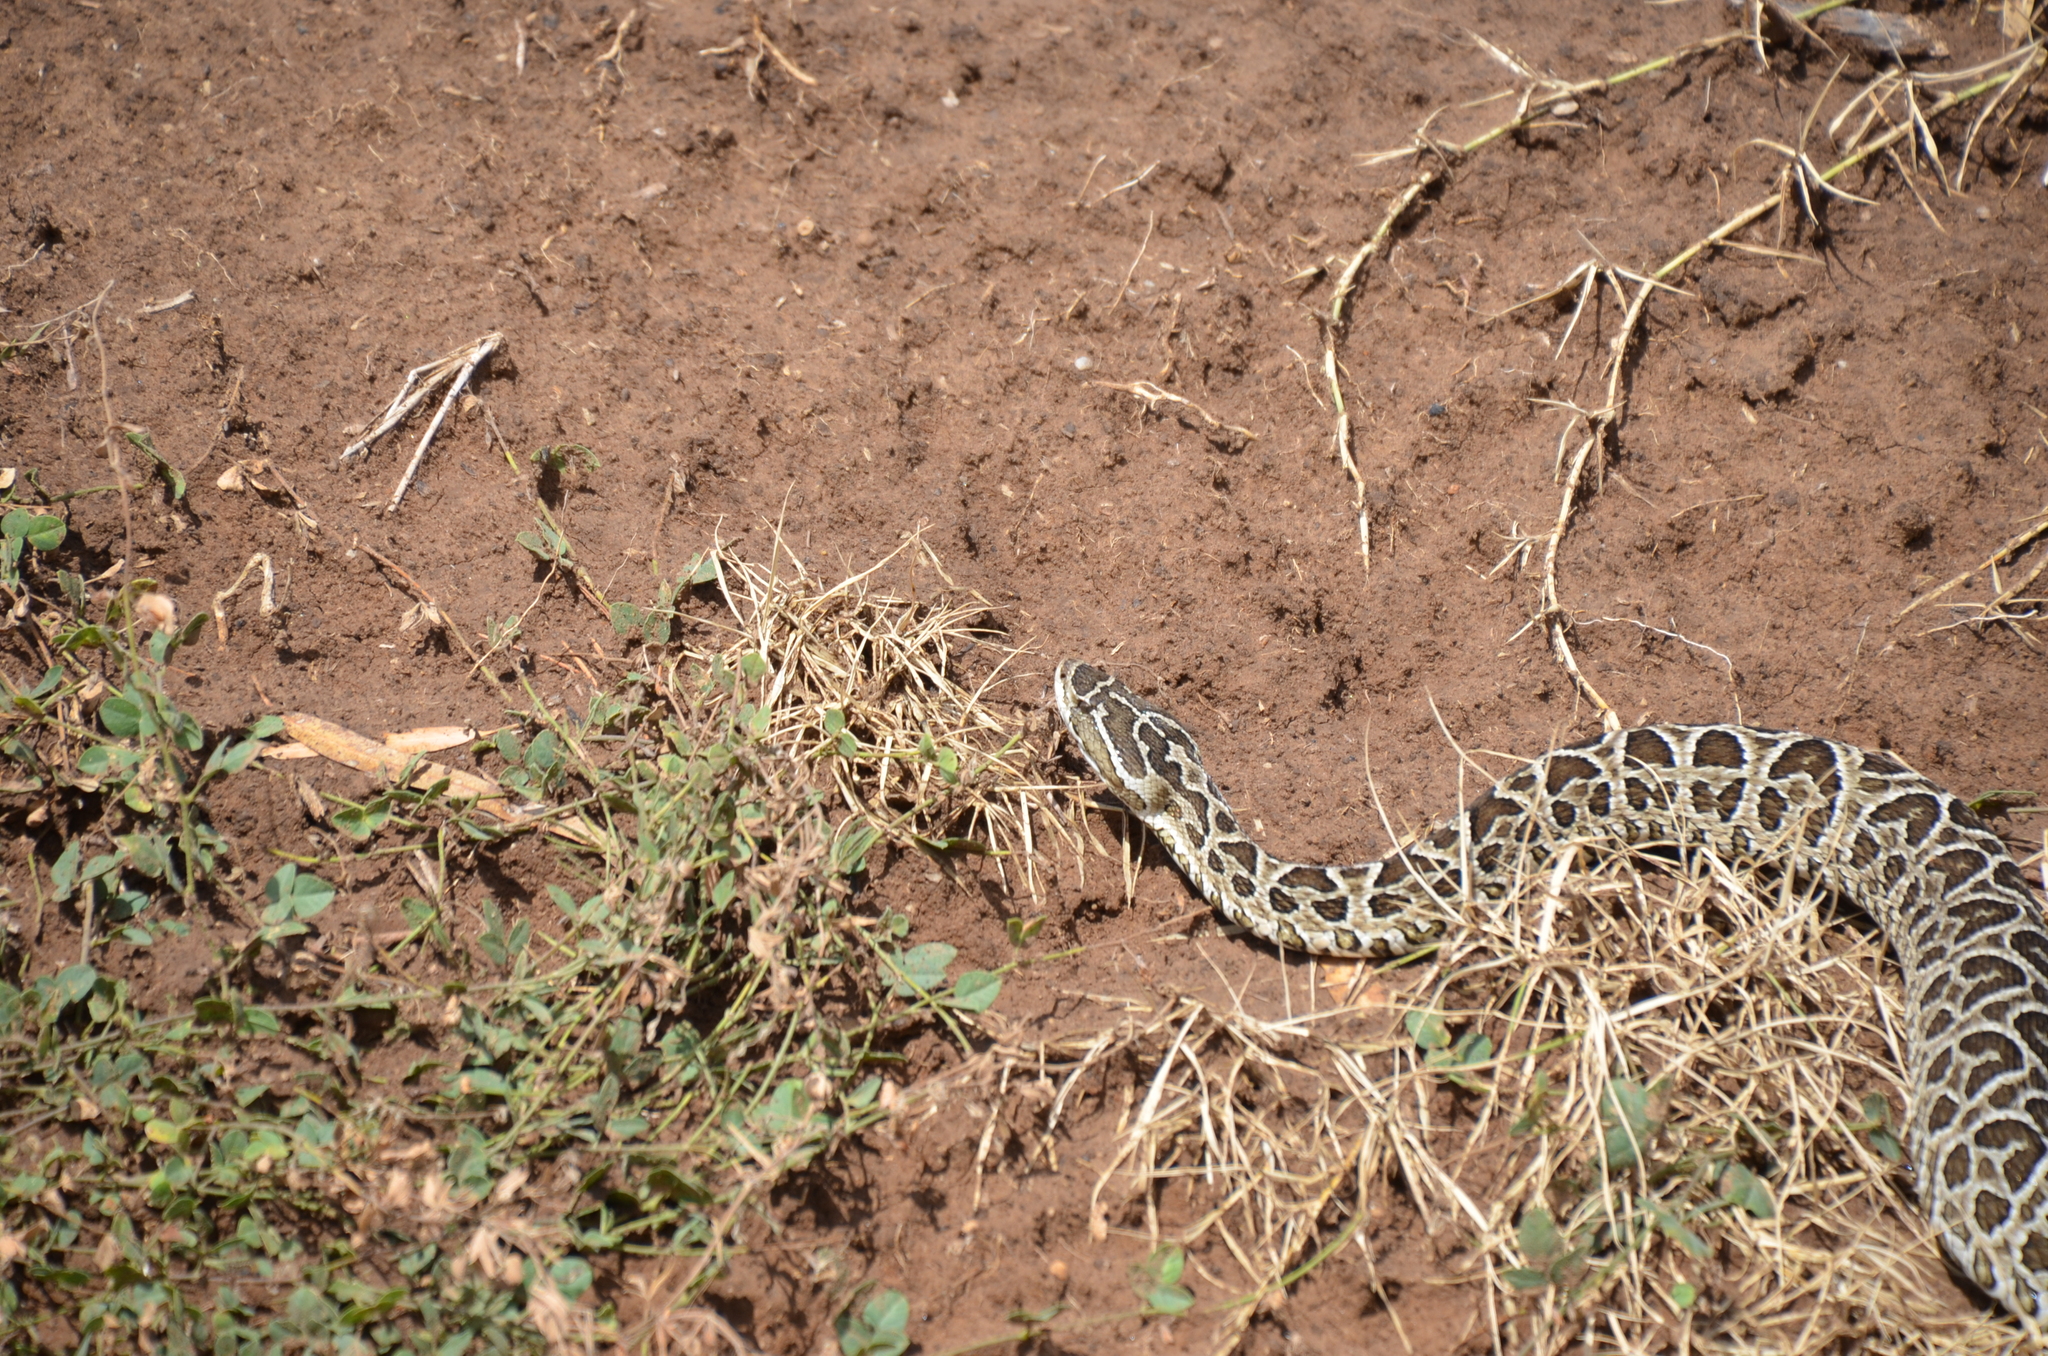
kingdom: Animalia
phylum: Chordata
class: Squamata
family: Viperidae
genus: Bothrops
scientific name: Bothrops alternatus
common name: Urutu
